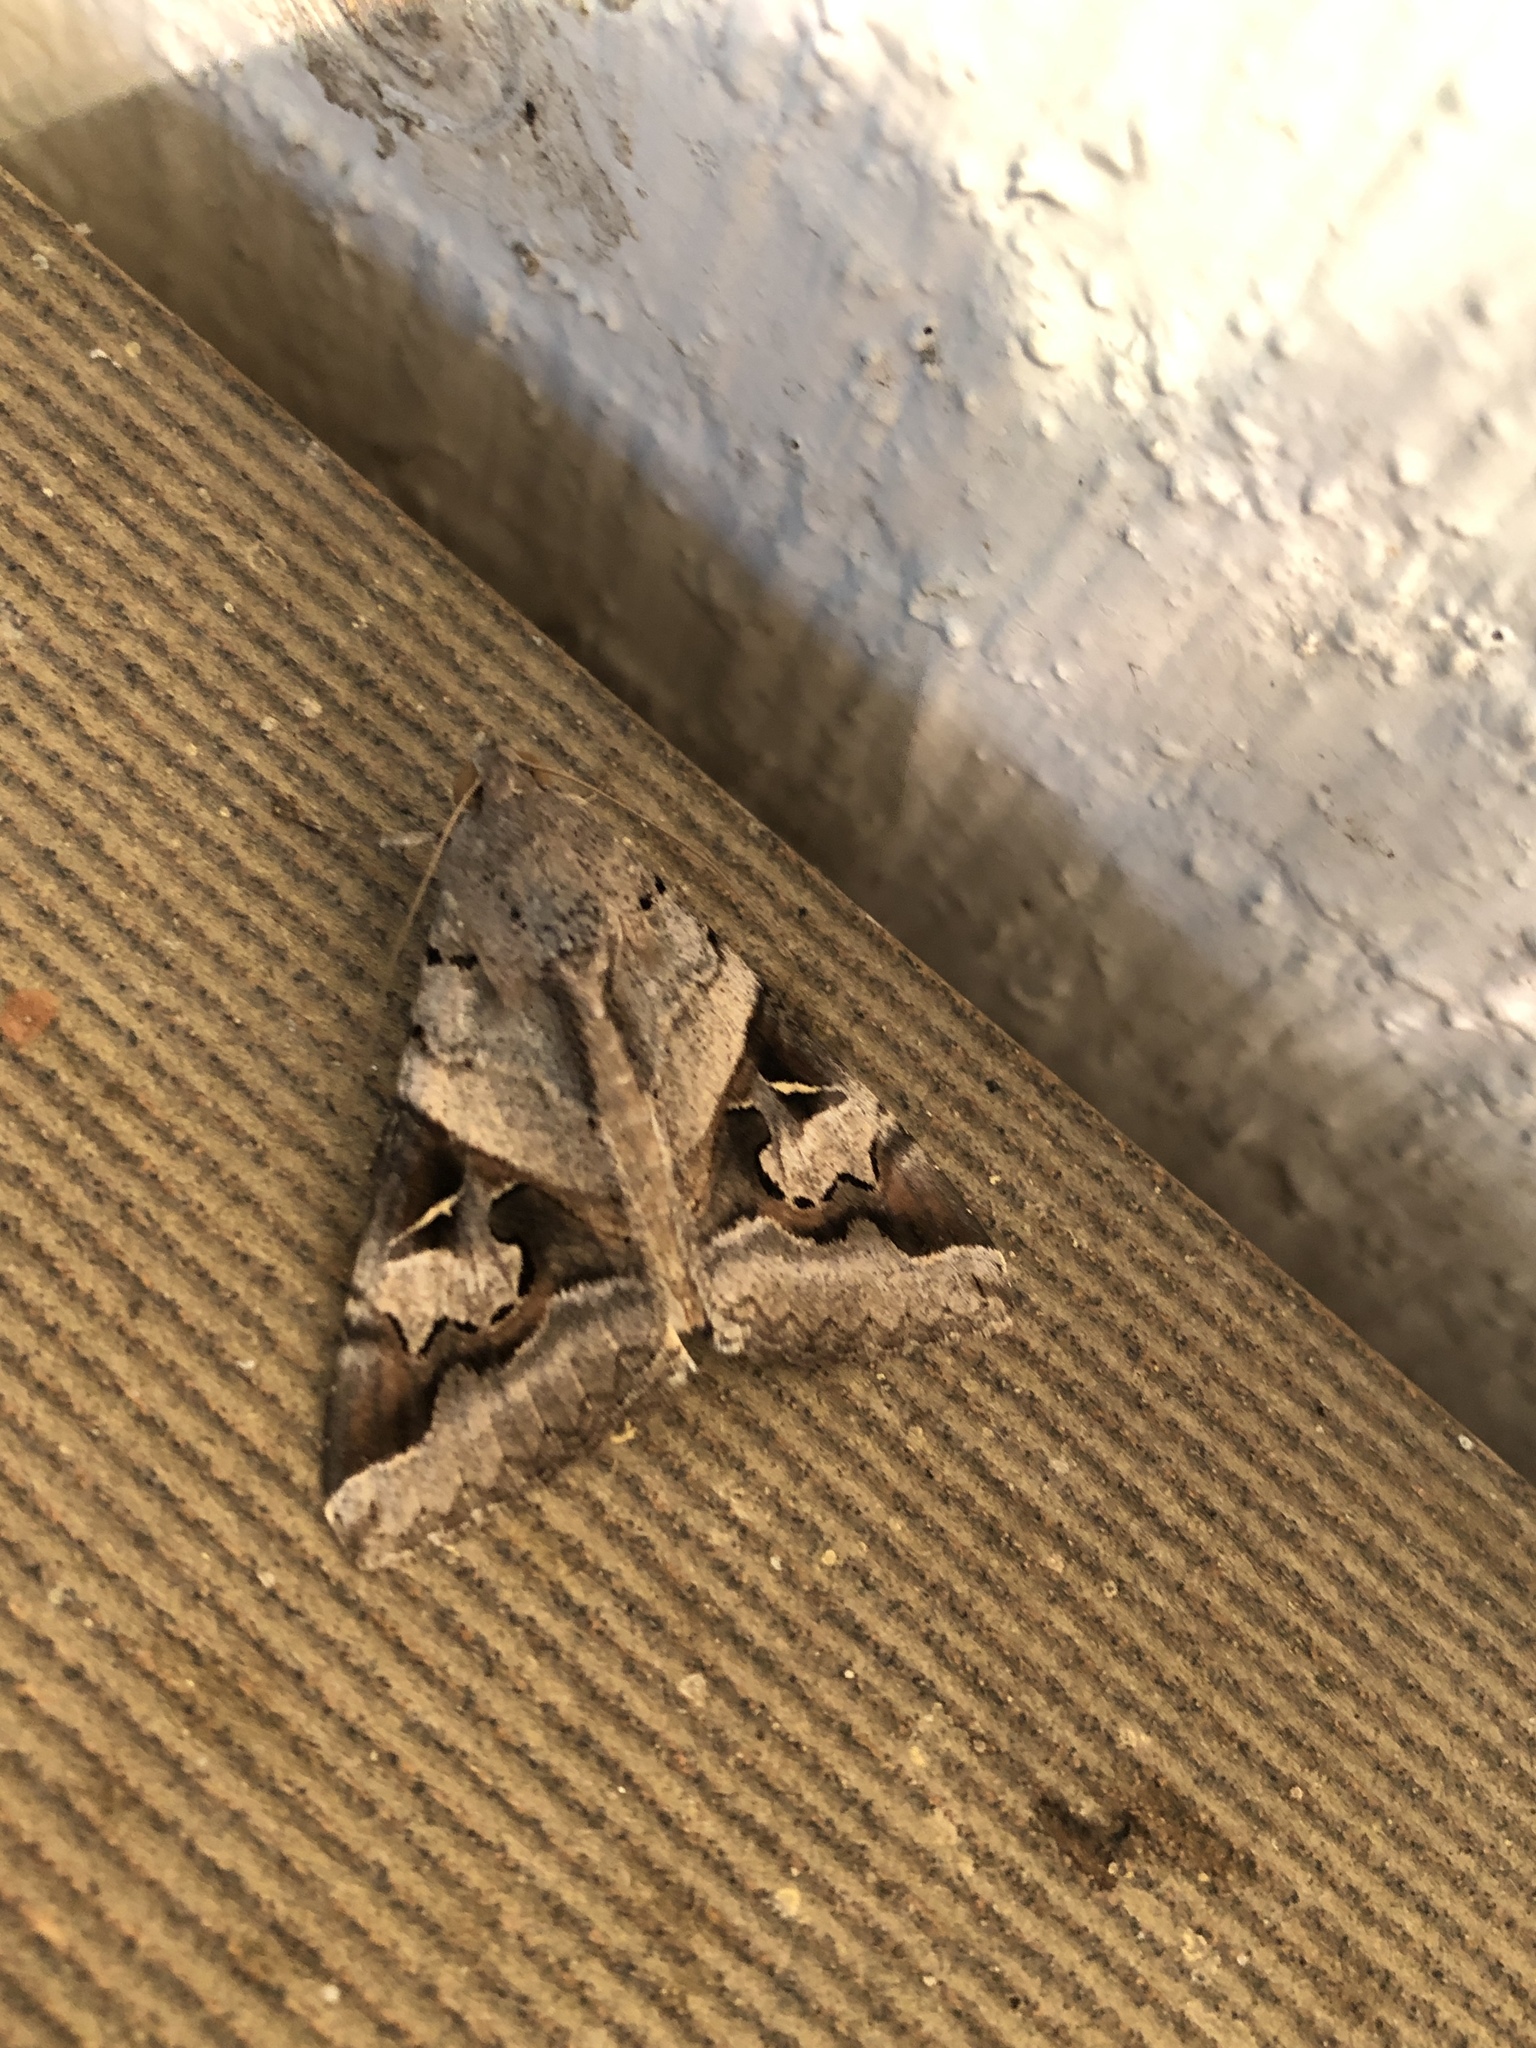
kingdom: Animalia
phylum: Arthropoda
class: Insecta
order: Lepidoptera
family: Erebidae
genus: Melipotis
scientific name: Melipotis indomita
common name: Moth
